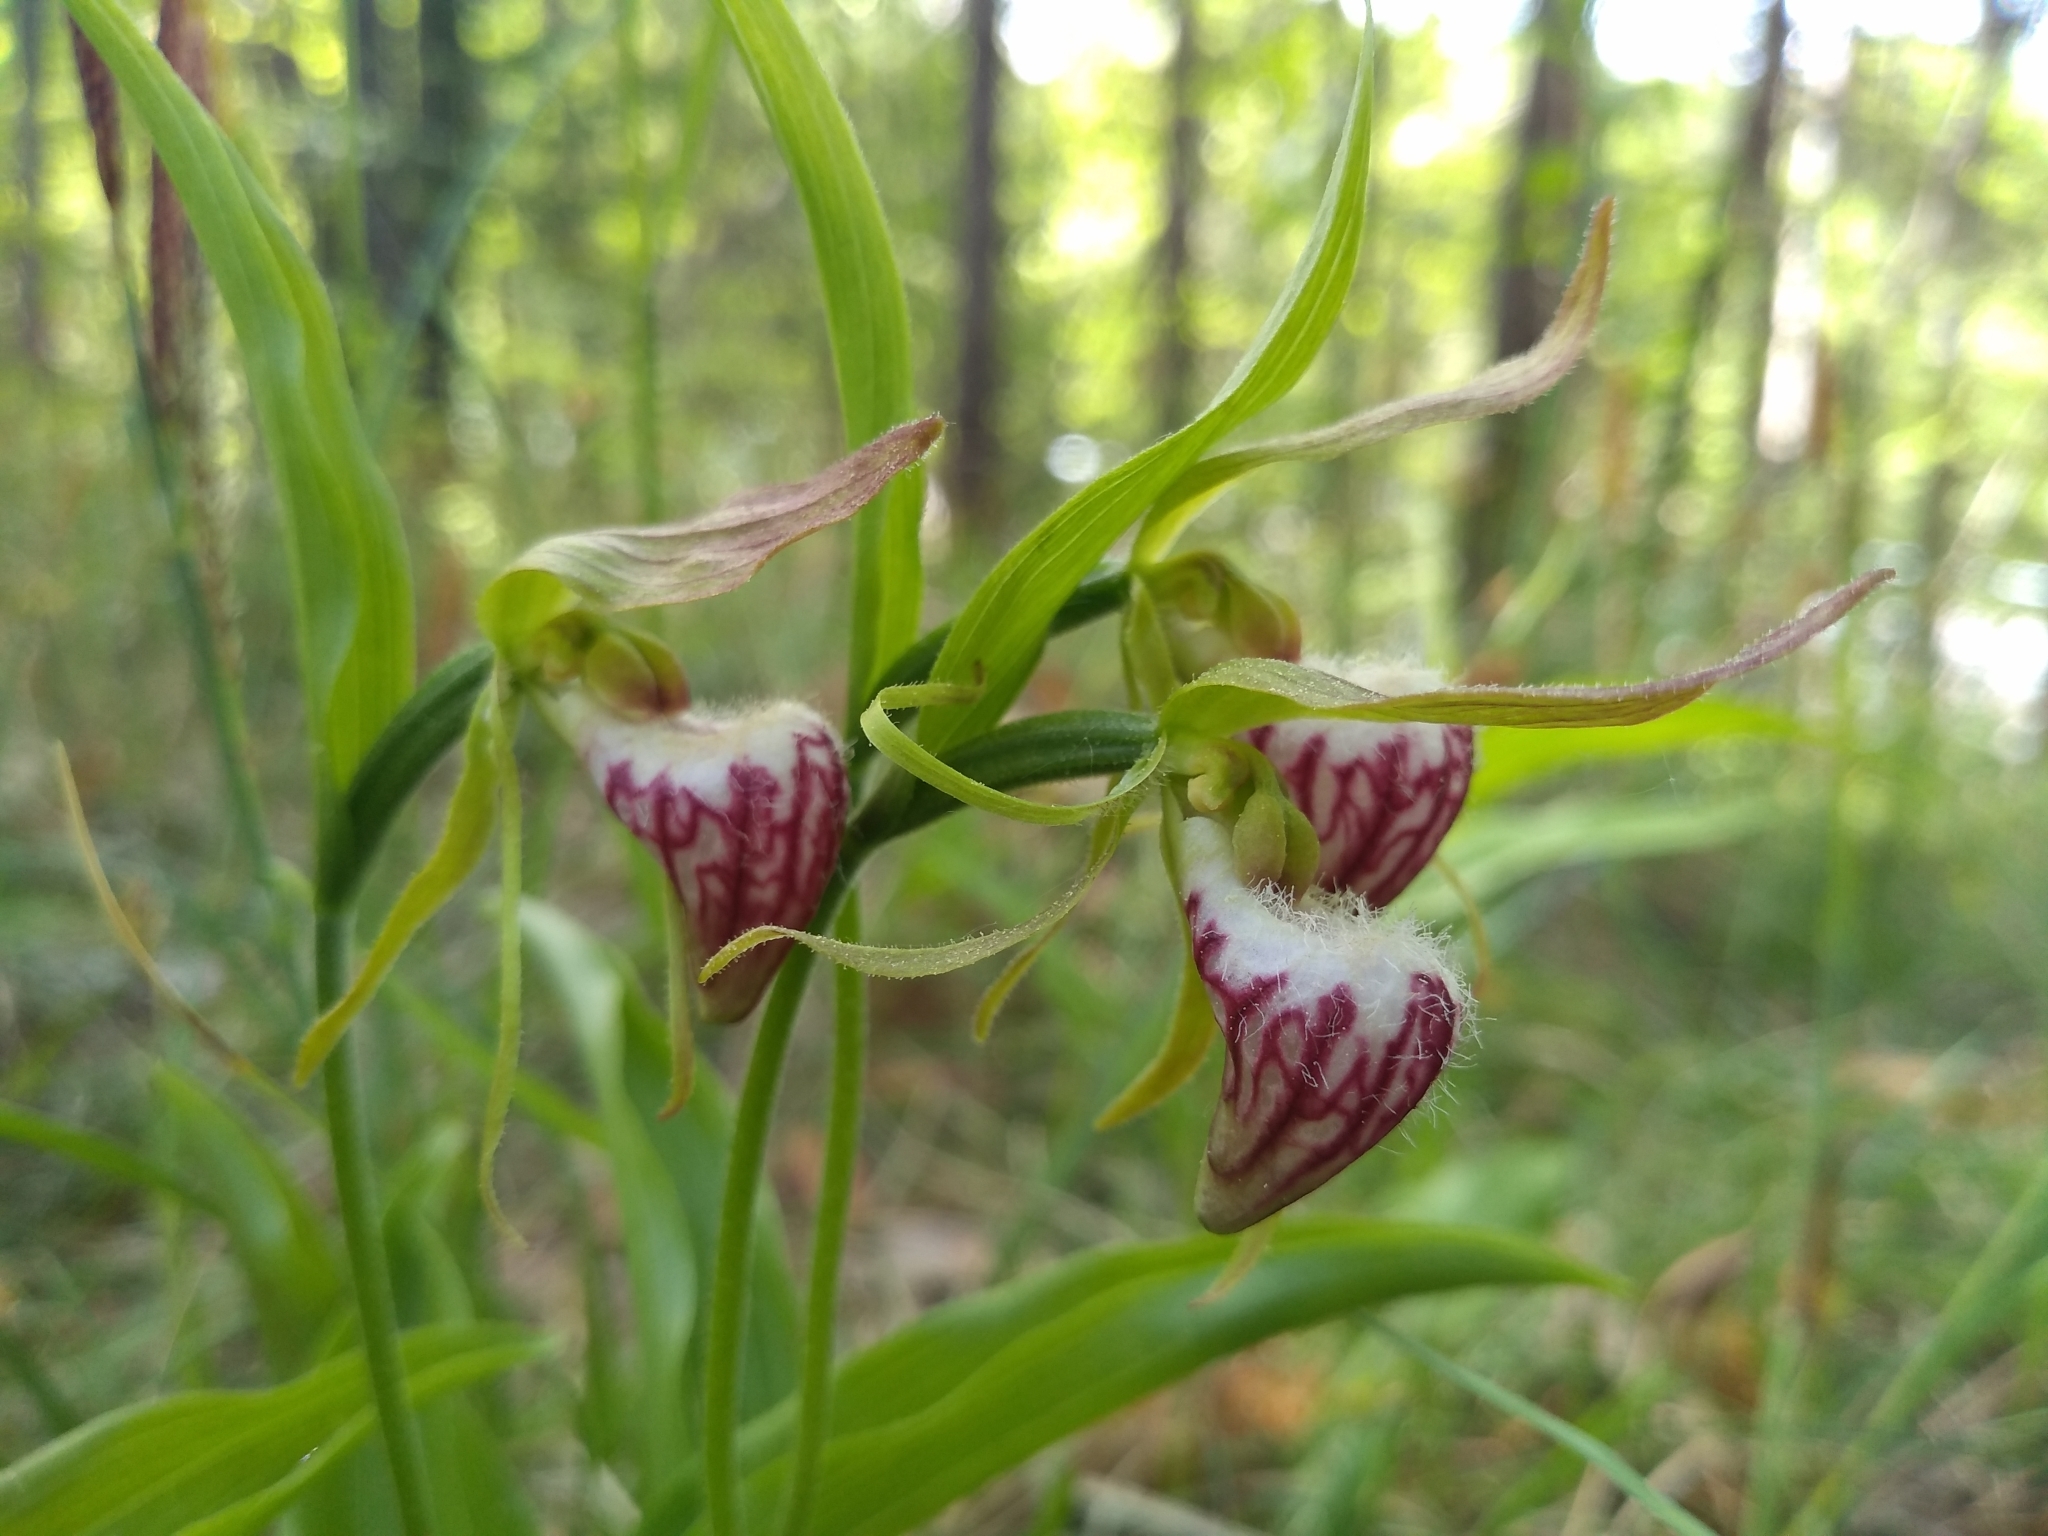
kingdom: Plantae
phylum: Tracheophyta
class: Liliopsida
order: Asparagales
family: Orchidaceae
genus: Cypripedium
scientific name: Cypripedium arietinum
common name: Ram's-head
